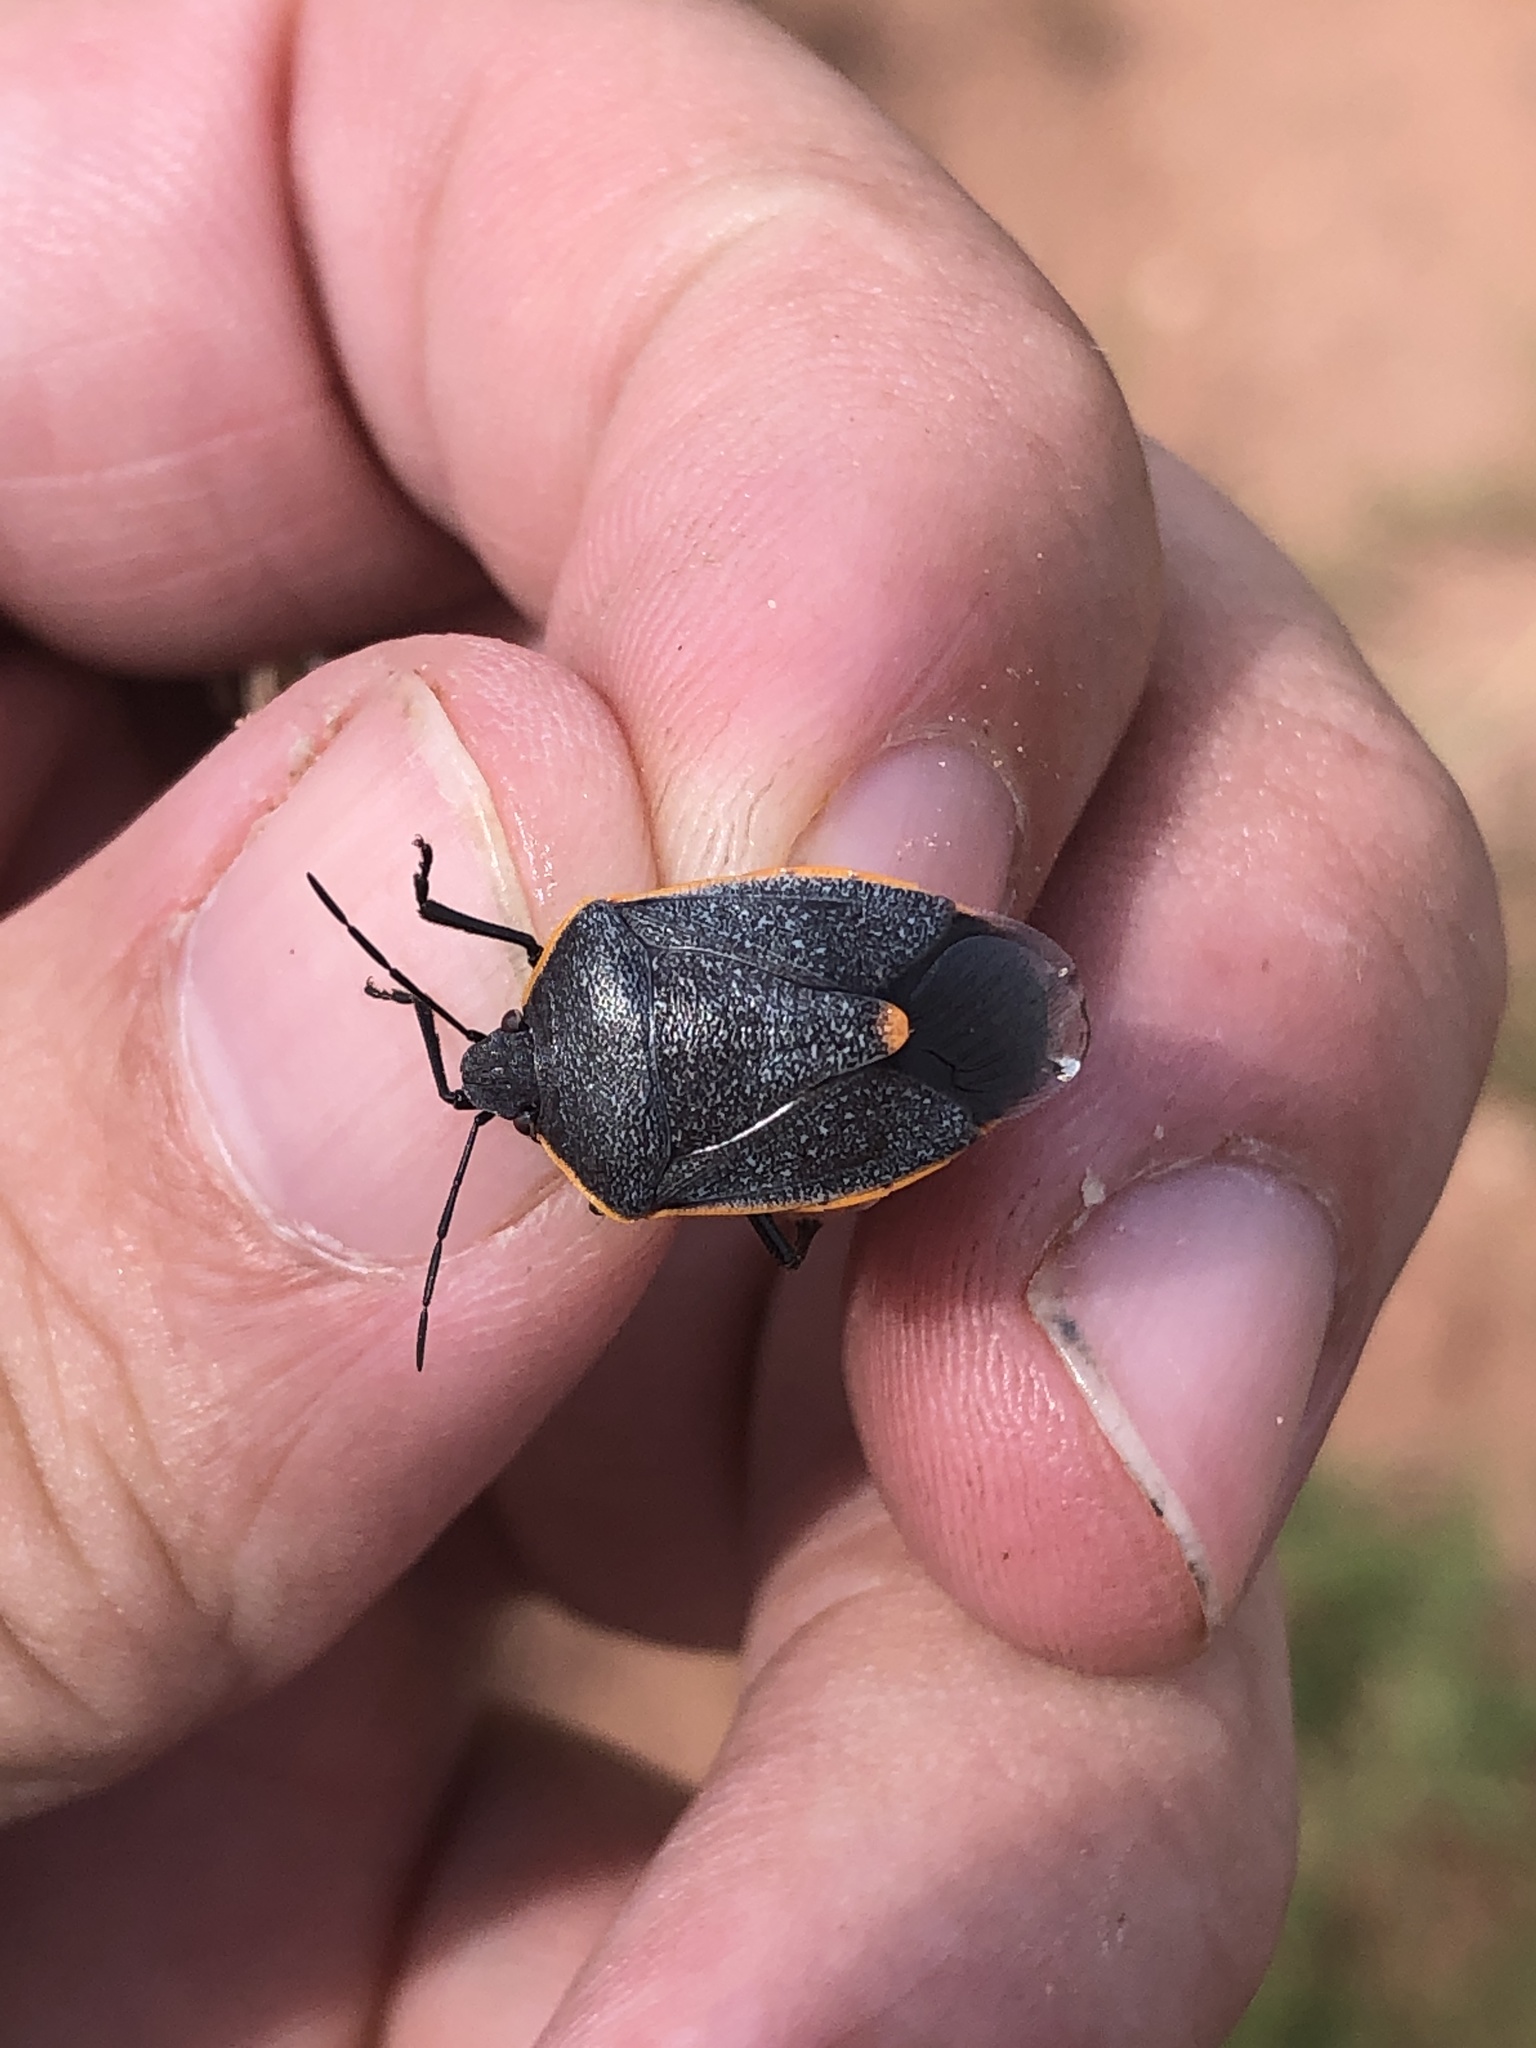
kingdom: Animalia
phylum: Arthropoda
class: Insecta
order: Hemiptera
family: Pentatomidae
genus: Chlorochroa
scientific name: Chlorochroa ligata
